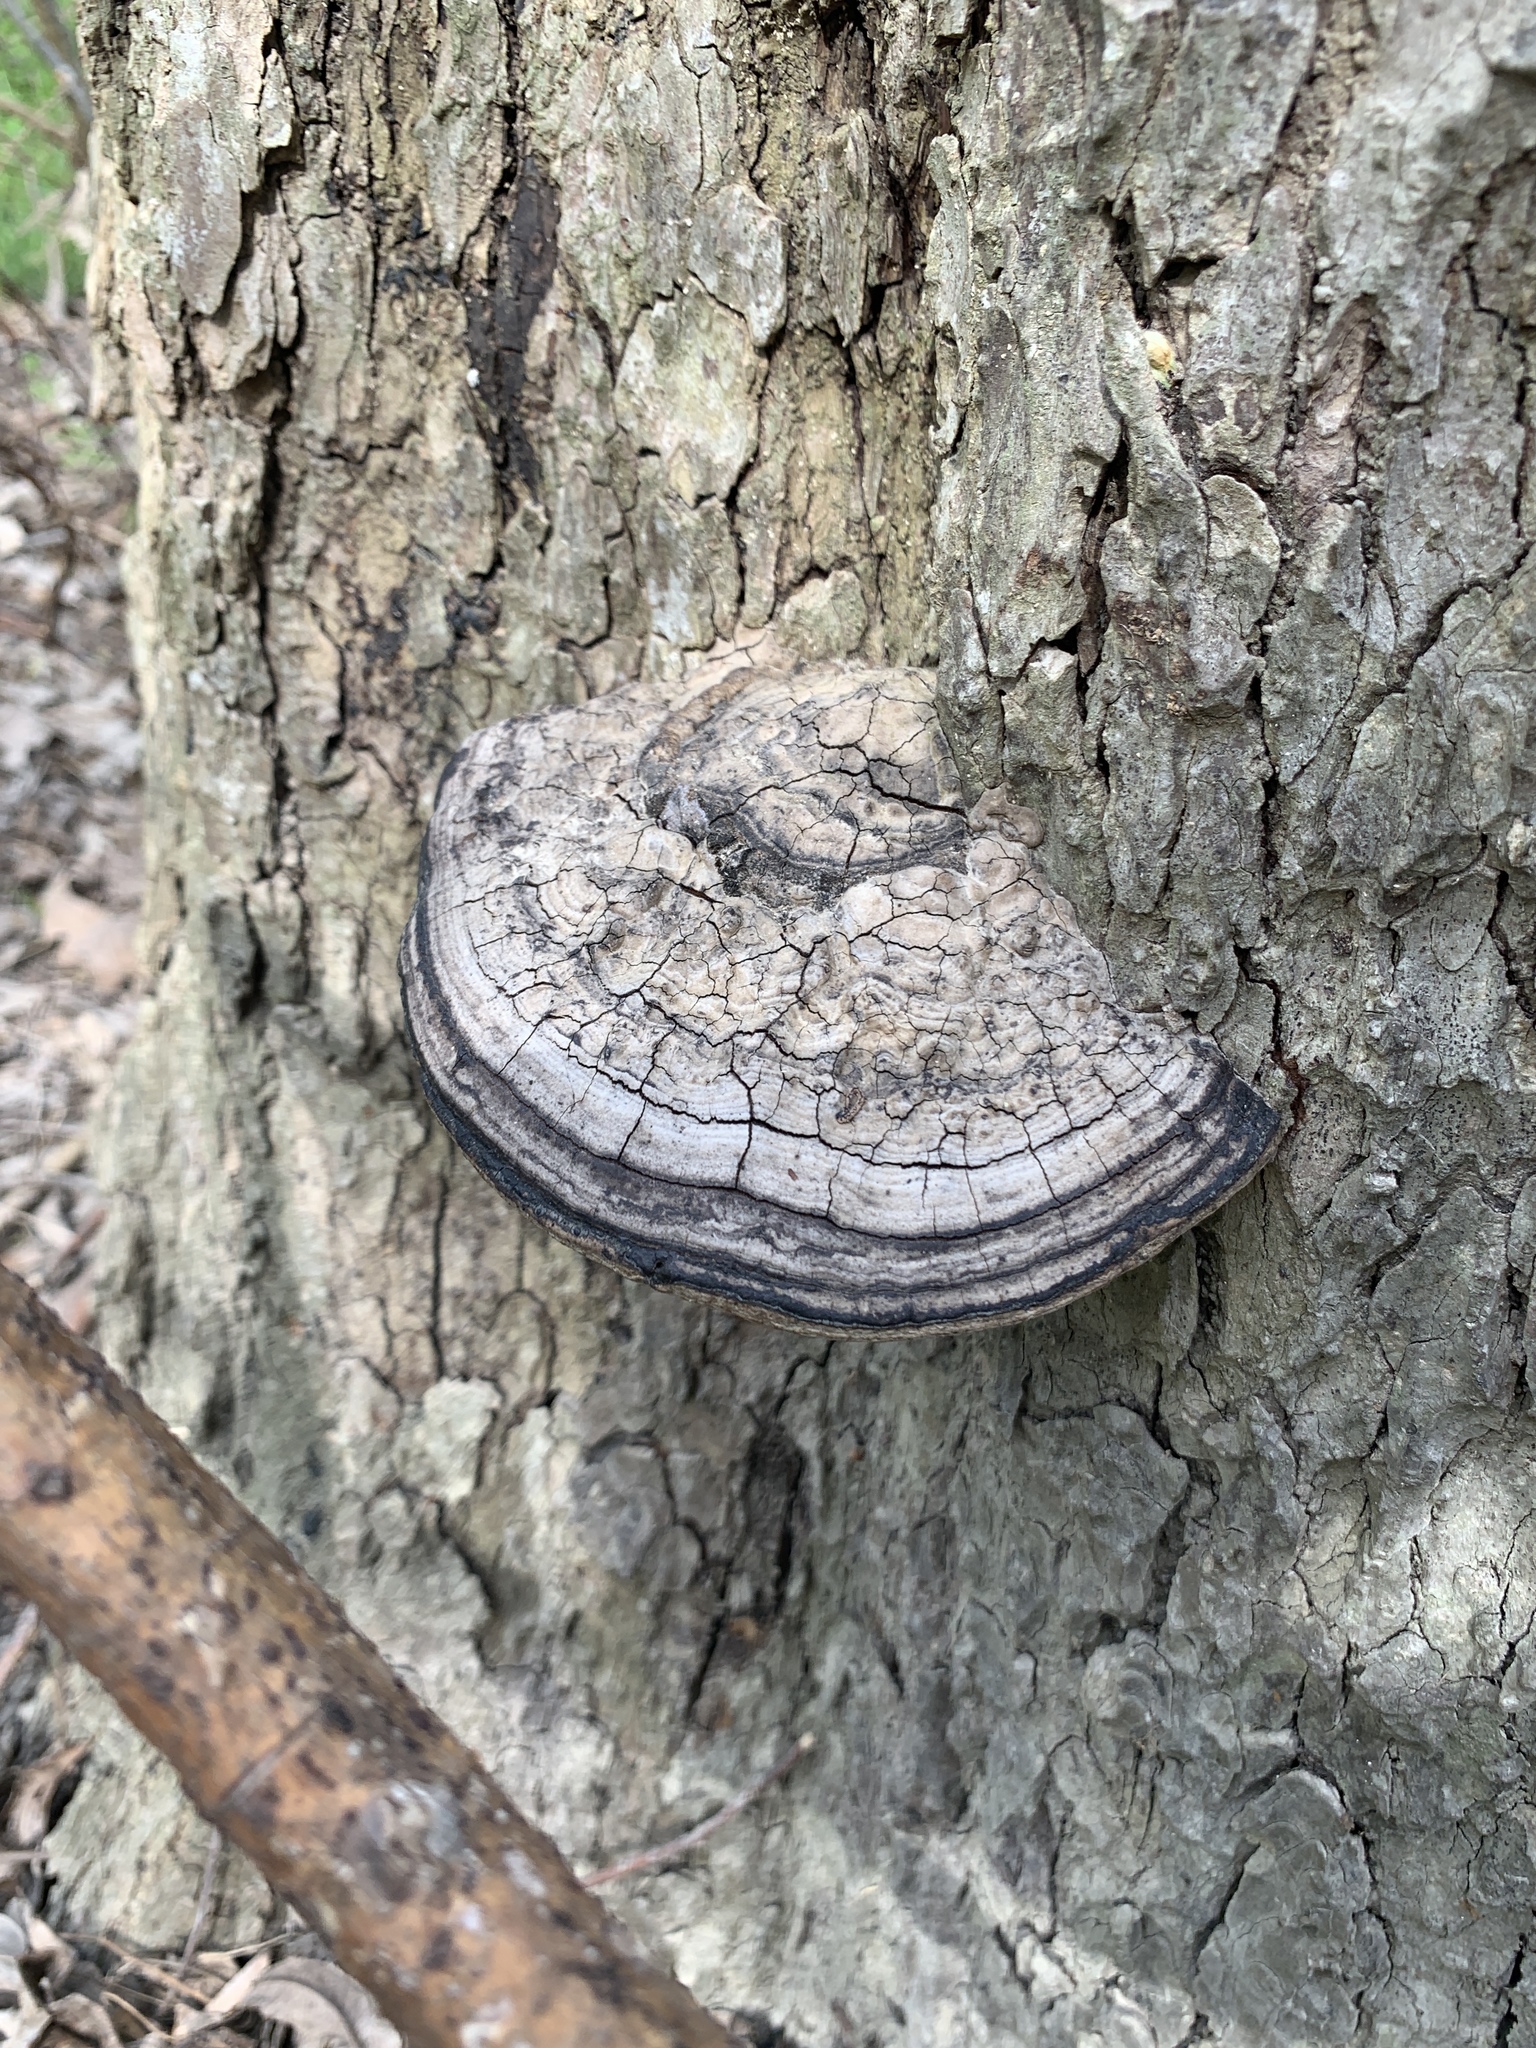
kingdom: Fungi
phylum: Basidiomycota
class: Agaricomycetes
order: Polyporales
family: Polyporaceae
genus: Fomes
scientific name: Fomes fasciatus
